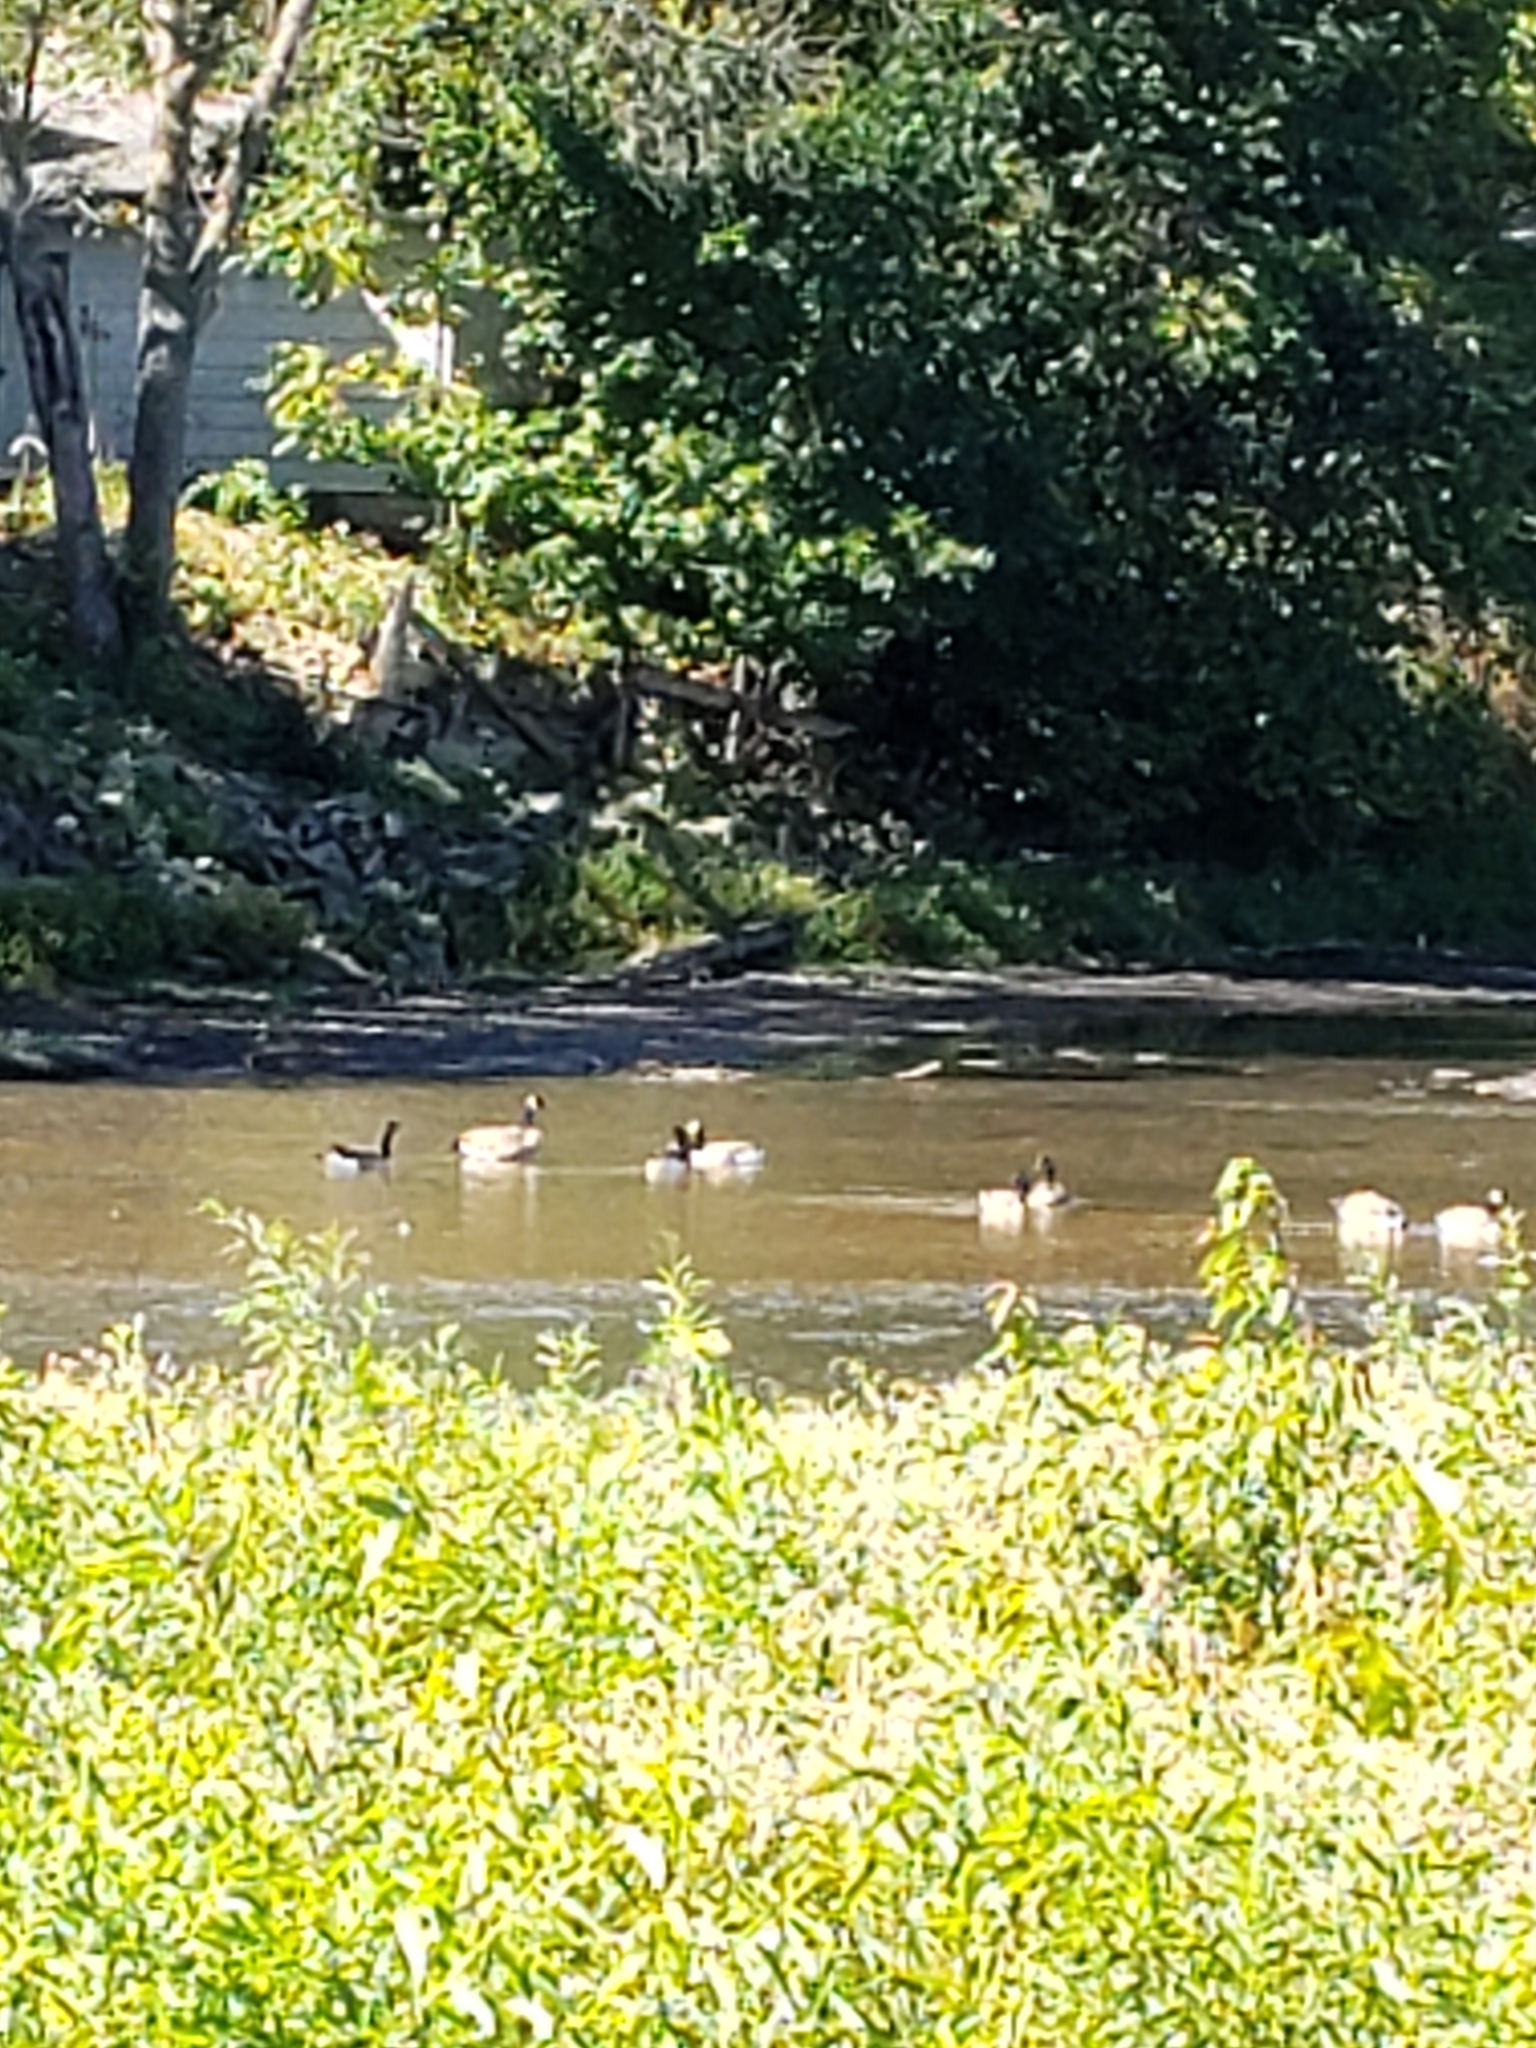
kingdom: Animalia
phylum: Chordata
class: Aves
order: Anseriformes
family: Anatidae
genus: Branta
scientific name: Branta canadensis
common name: Canada goose
